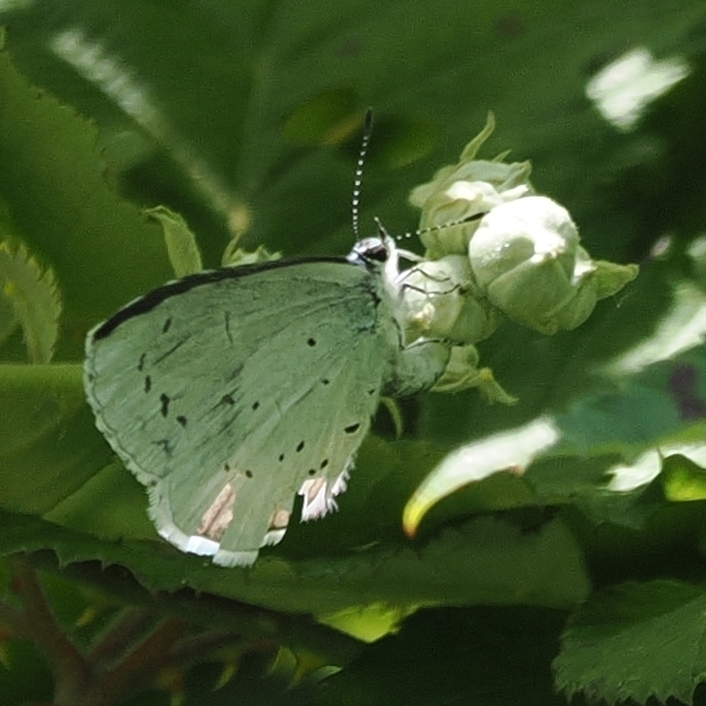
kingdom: Animalia
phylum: Arthropoda
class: Insecta
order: Lepidoptera
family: Lycaenidae
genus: Celastrina
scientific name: Celastrina argiolus
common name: Holly blue
